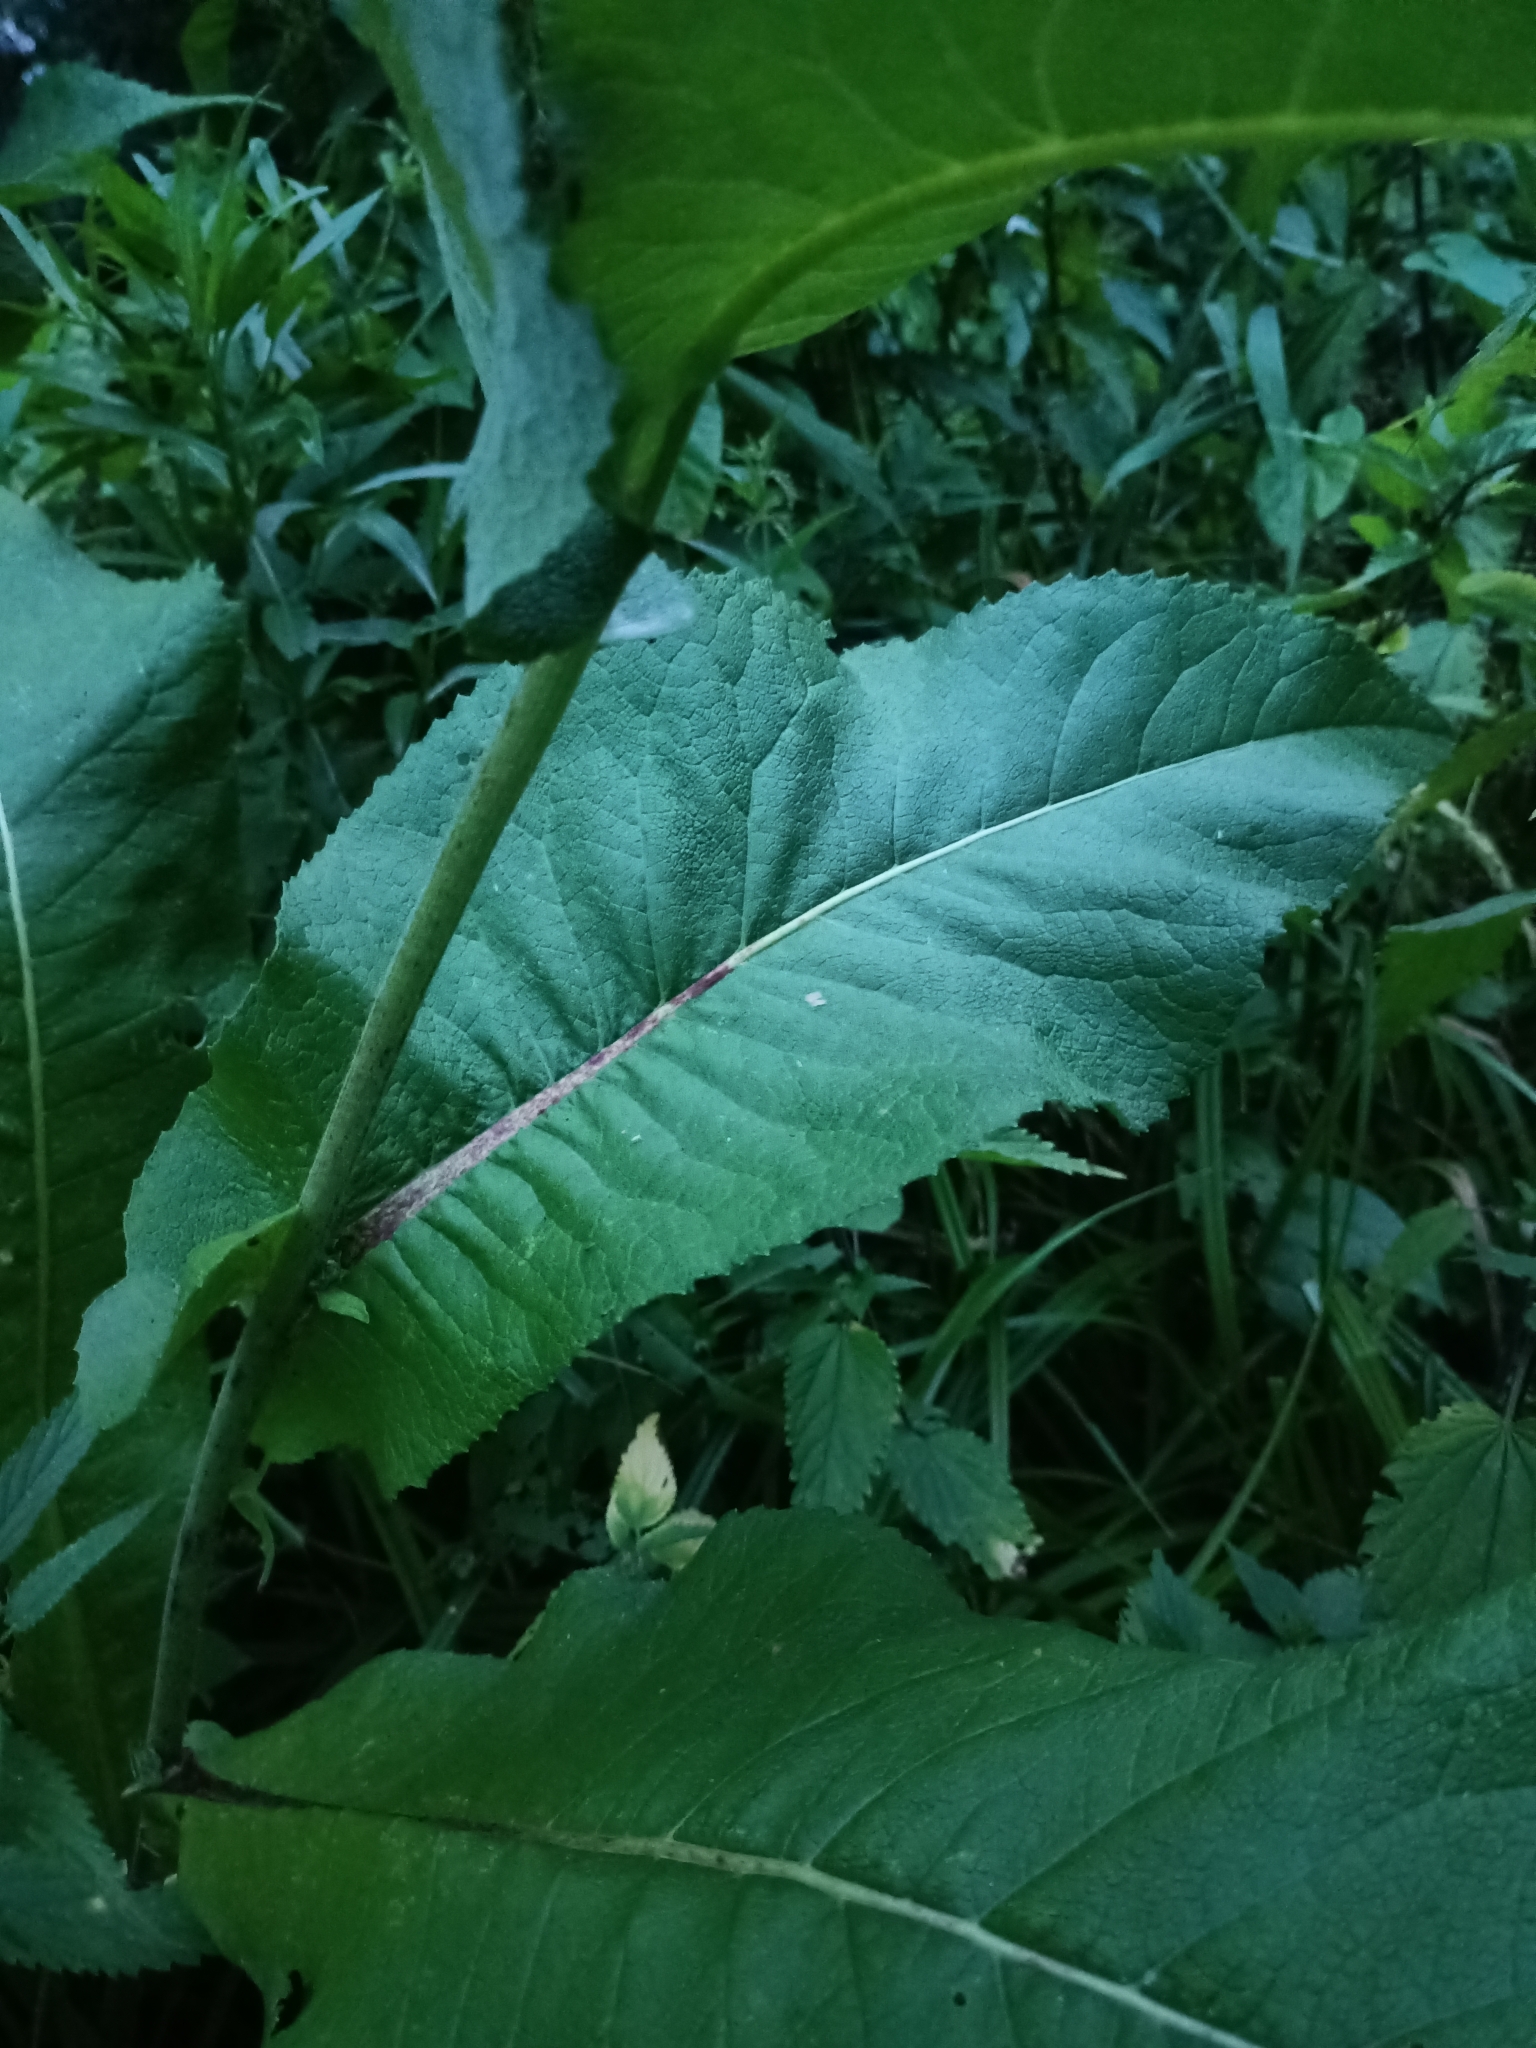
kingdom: Plantae
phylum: Tracheophyta
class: Magnoliopsida
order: Asterales
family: Asteraceae
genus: Inula
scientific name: Inula helenium
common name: Elecampane
